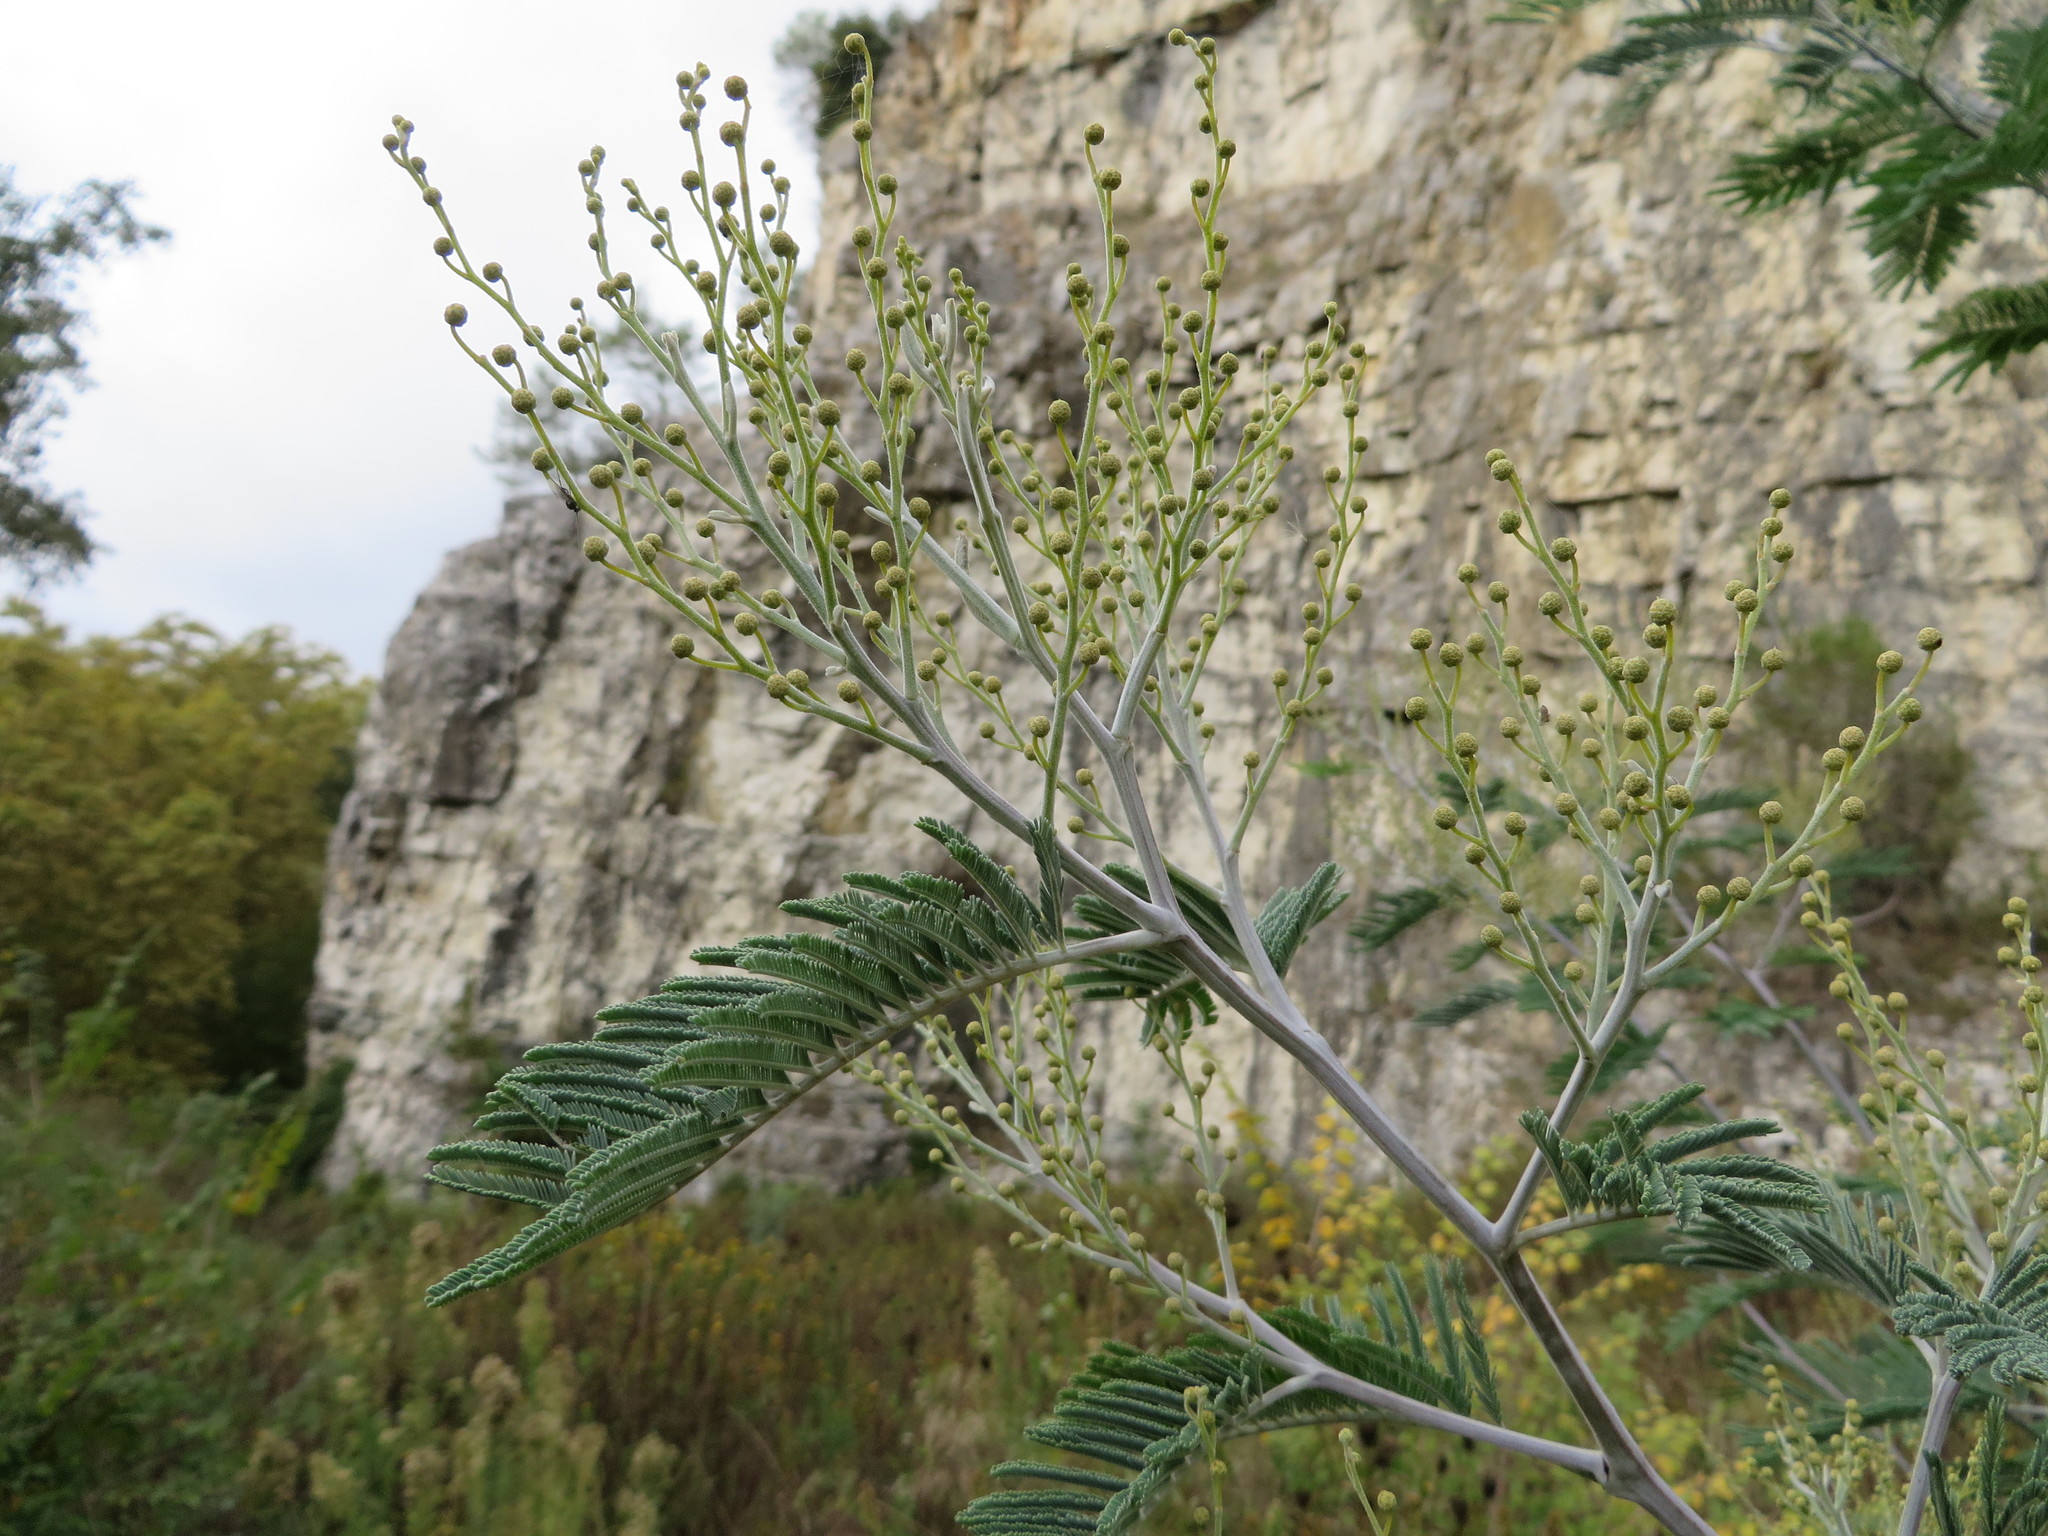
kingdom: Plantae
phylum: Tracheophyta
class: Magnoliopsida
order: Fabales
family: Fabaceae
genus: Acacia
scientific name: Acacia dealbata
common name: Silver wattle
